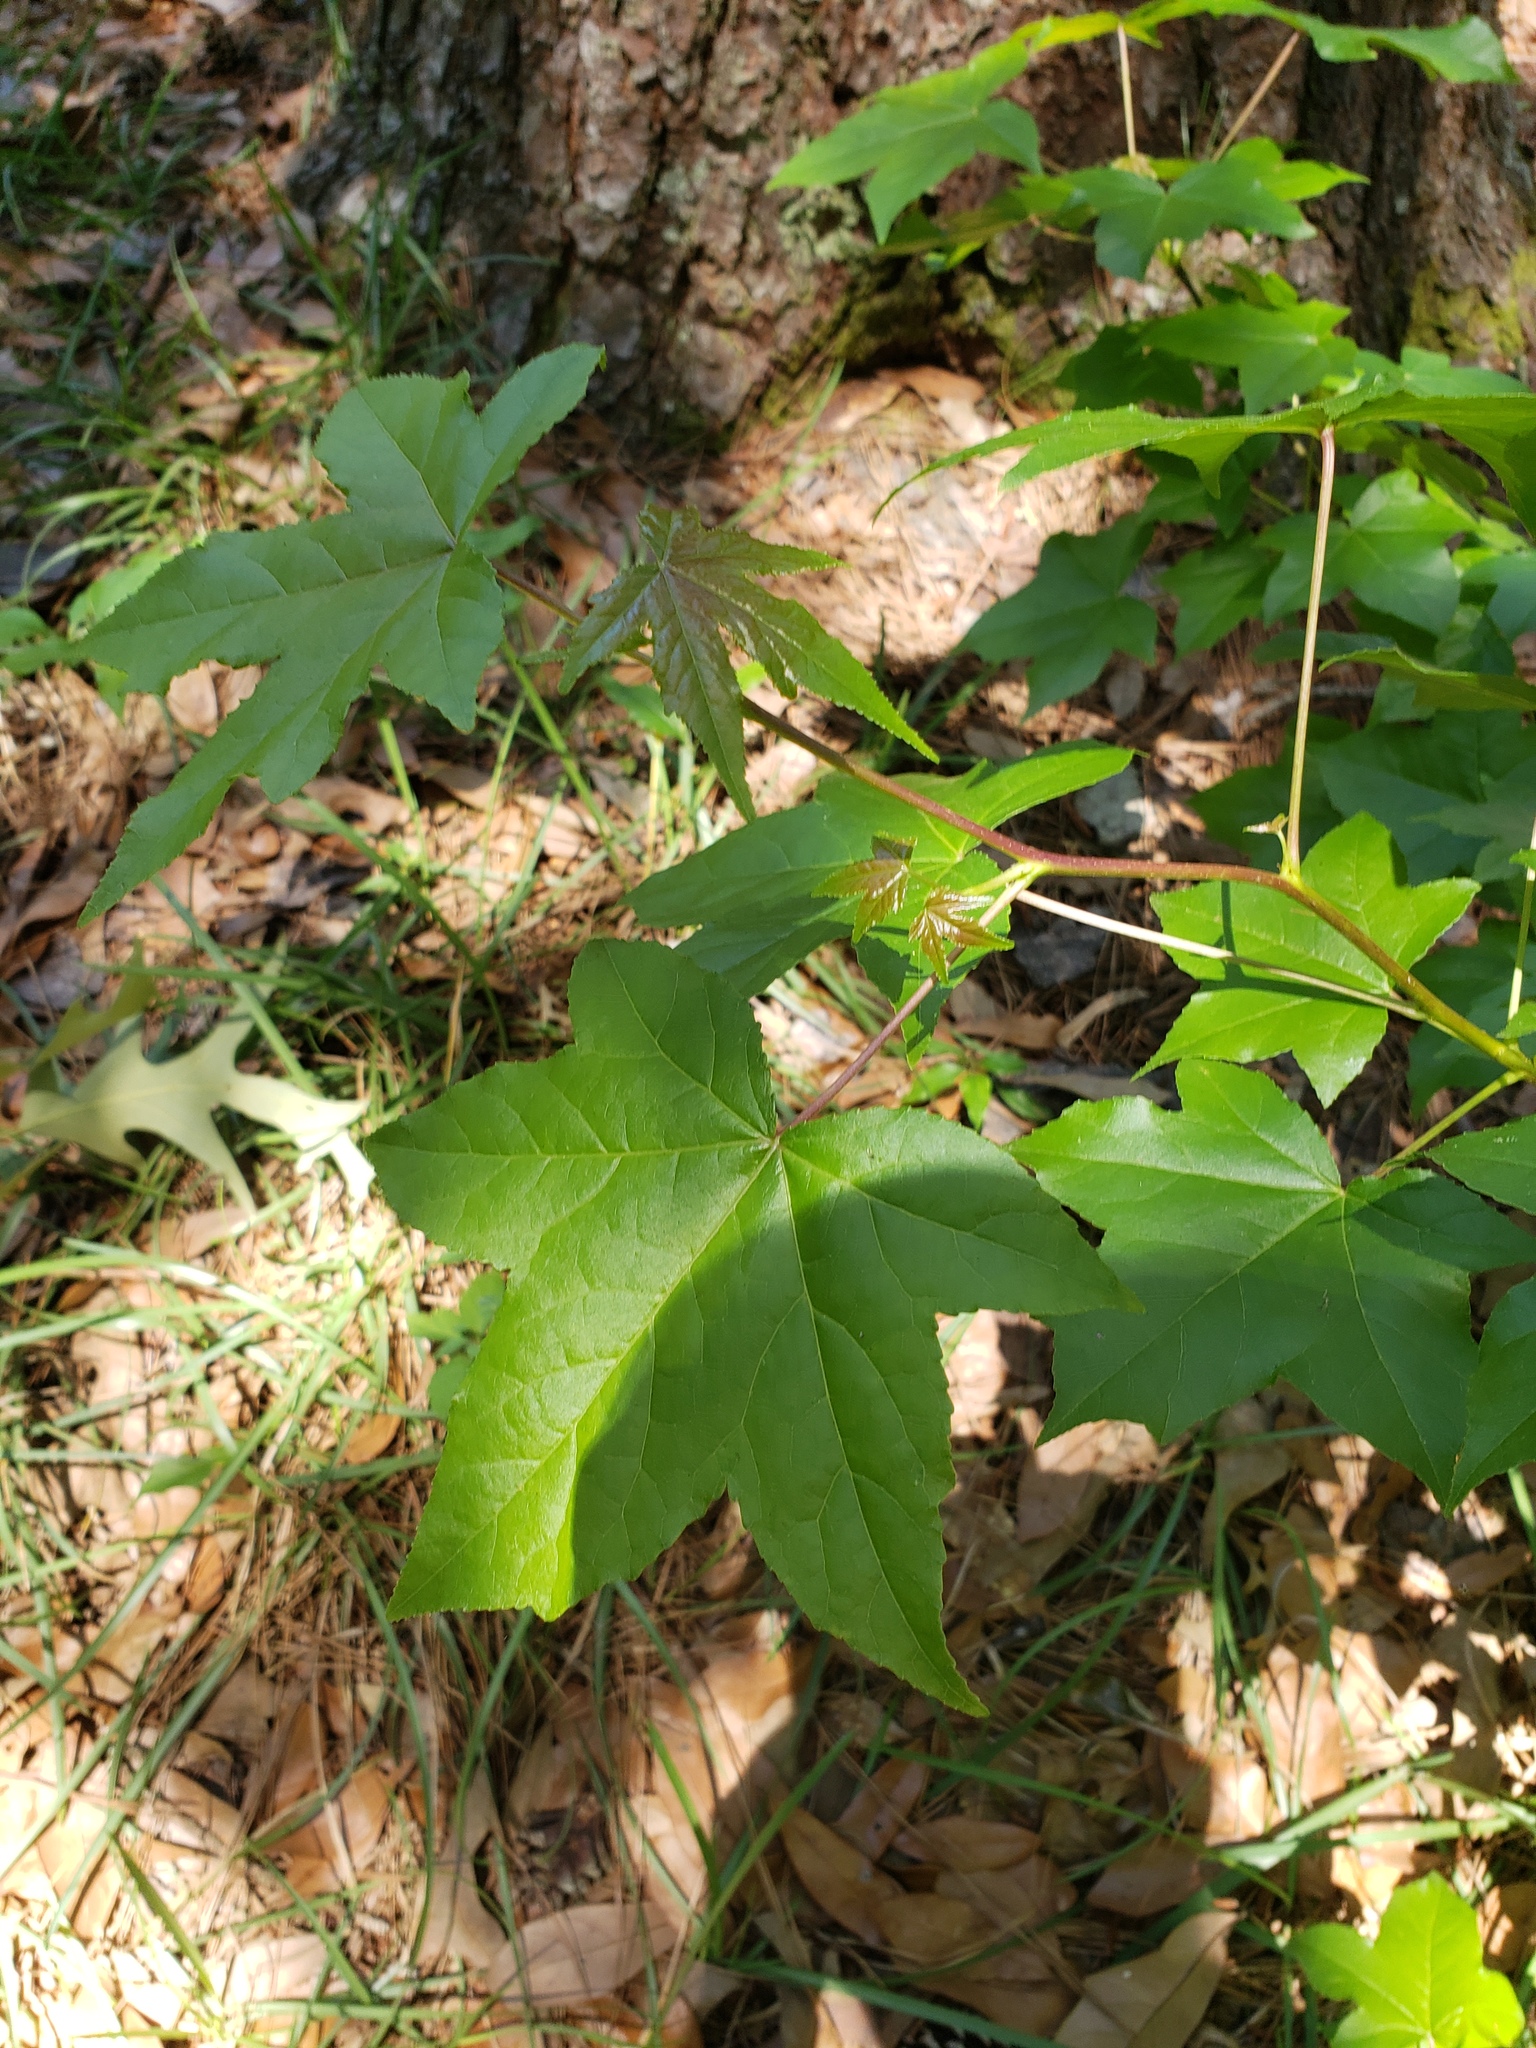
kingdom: Plantae
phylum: Tracheophyta
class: Magnoliopsida
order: Saxifragales
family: Altingiaceae
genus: Liquidambar
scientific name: Liquidambar styraciflua
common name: Sweet gum
